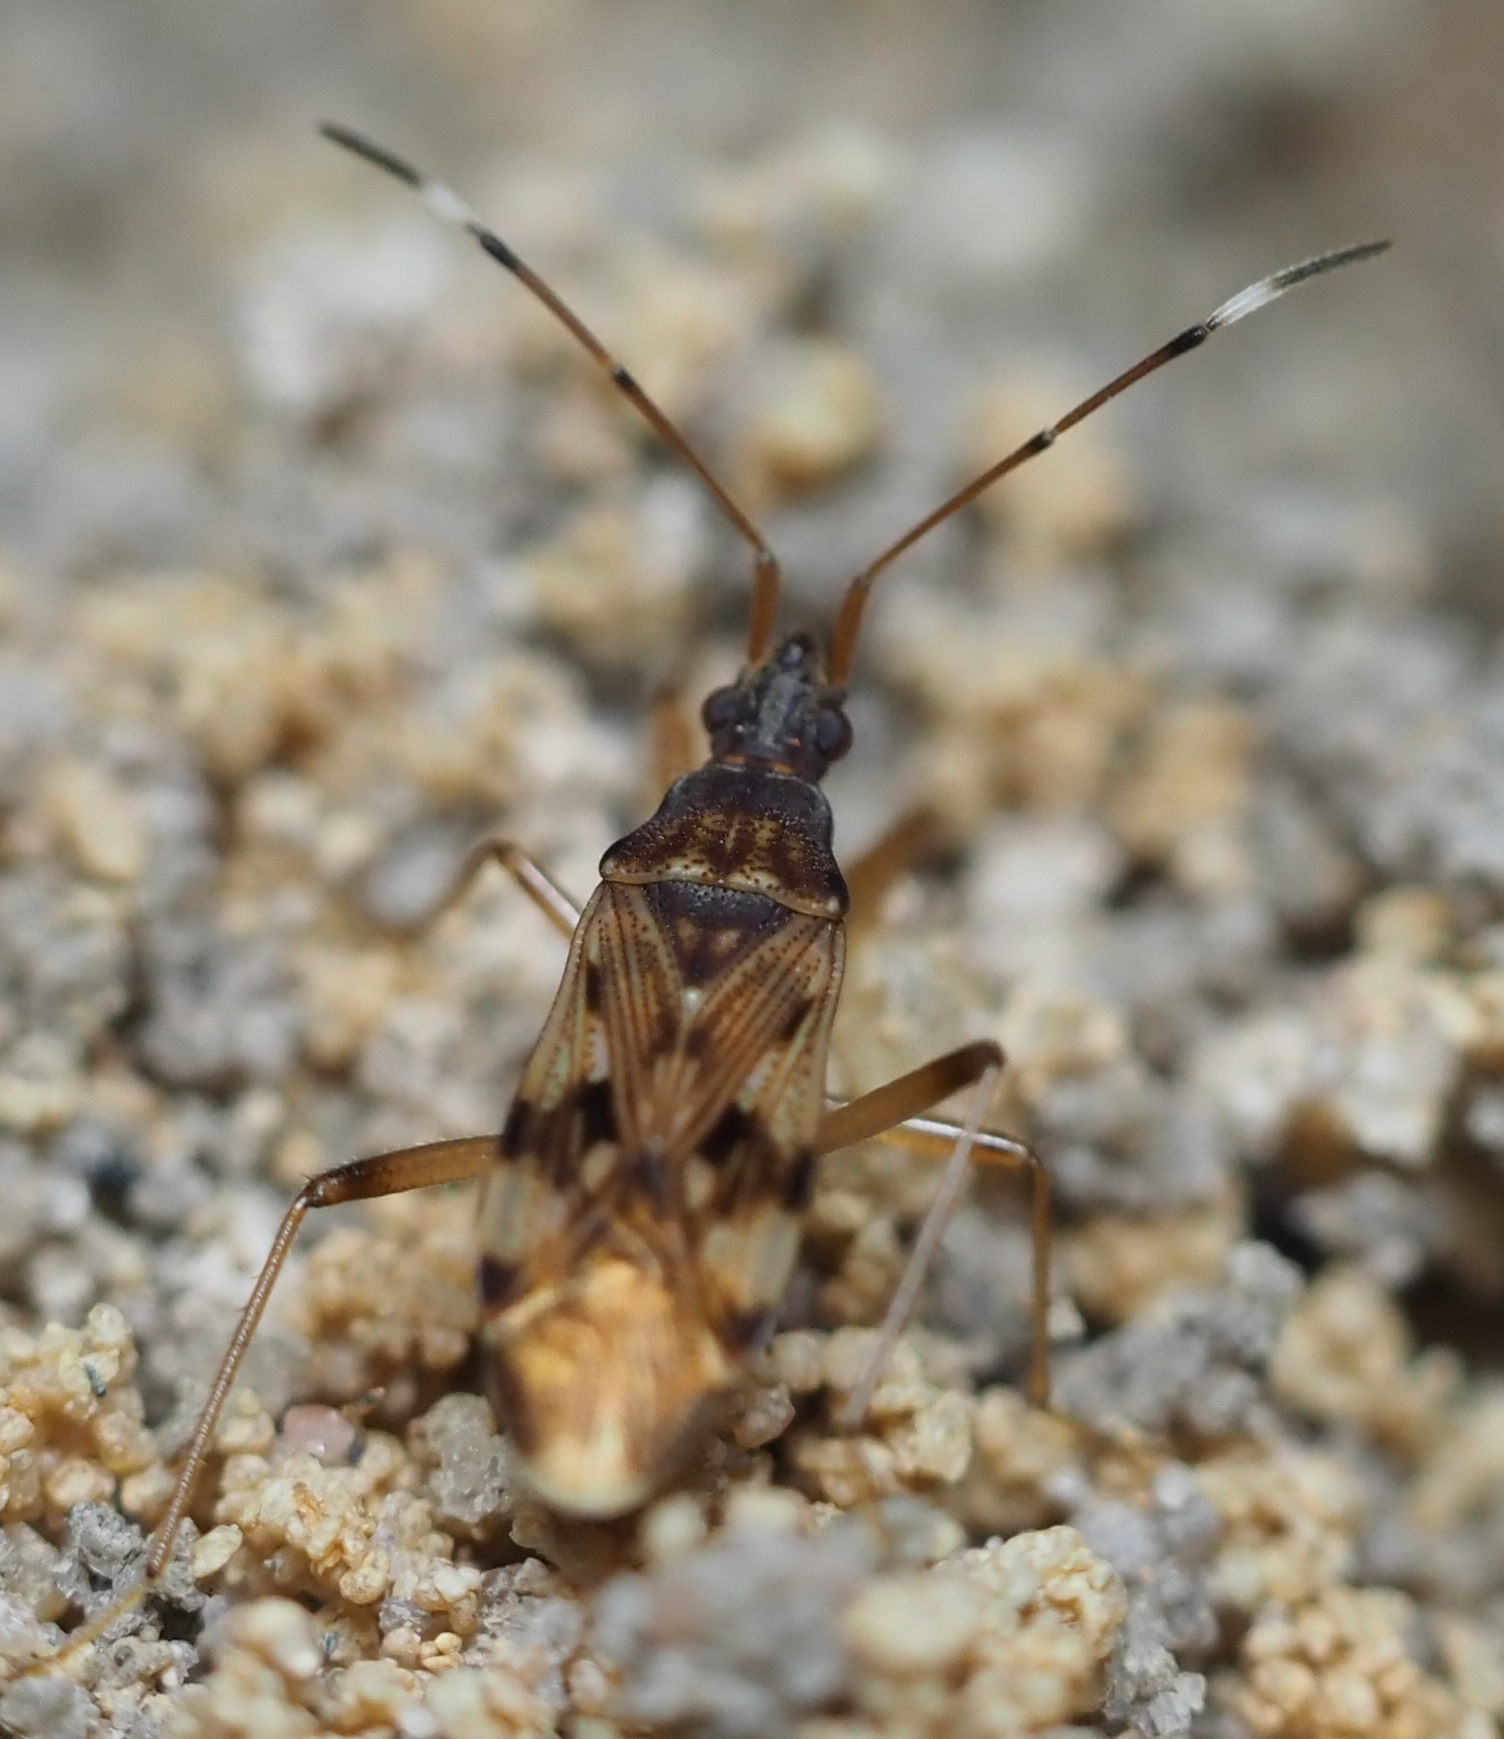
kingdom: Animalia
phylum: Arthropoda
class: Insecta
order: Hemiptera
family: Rhyparochromidae
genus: Ozophora
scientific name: Ozophora picturata
